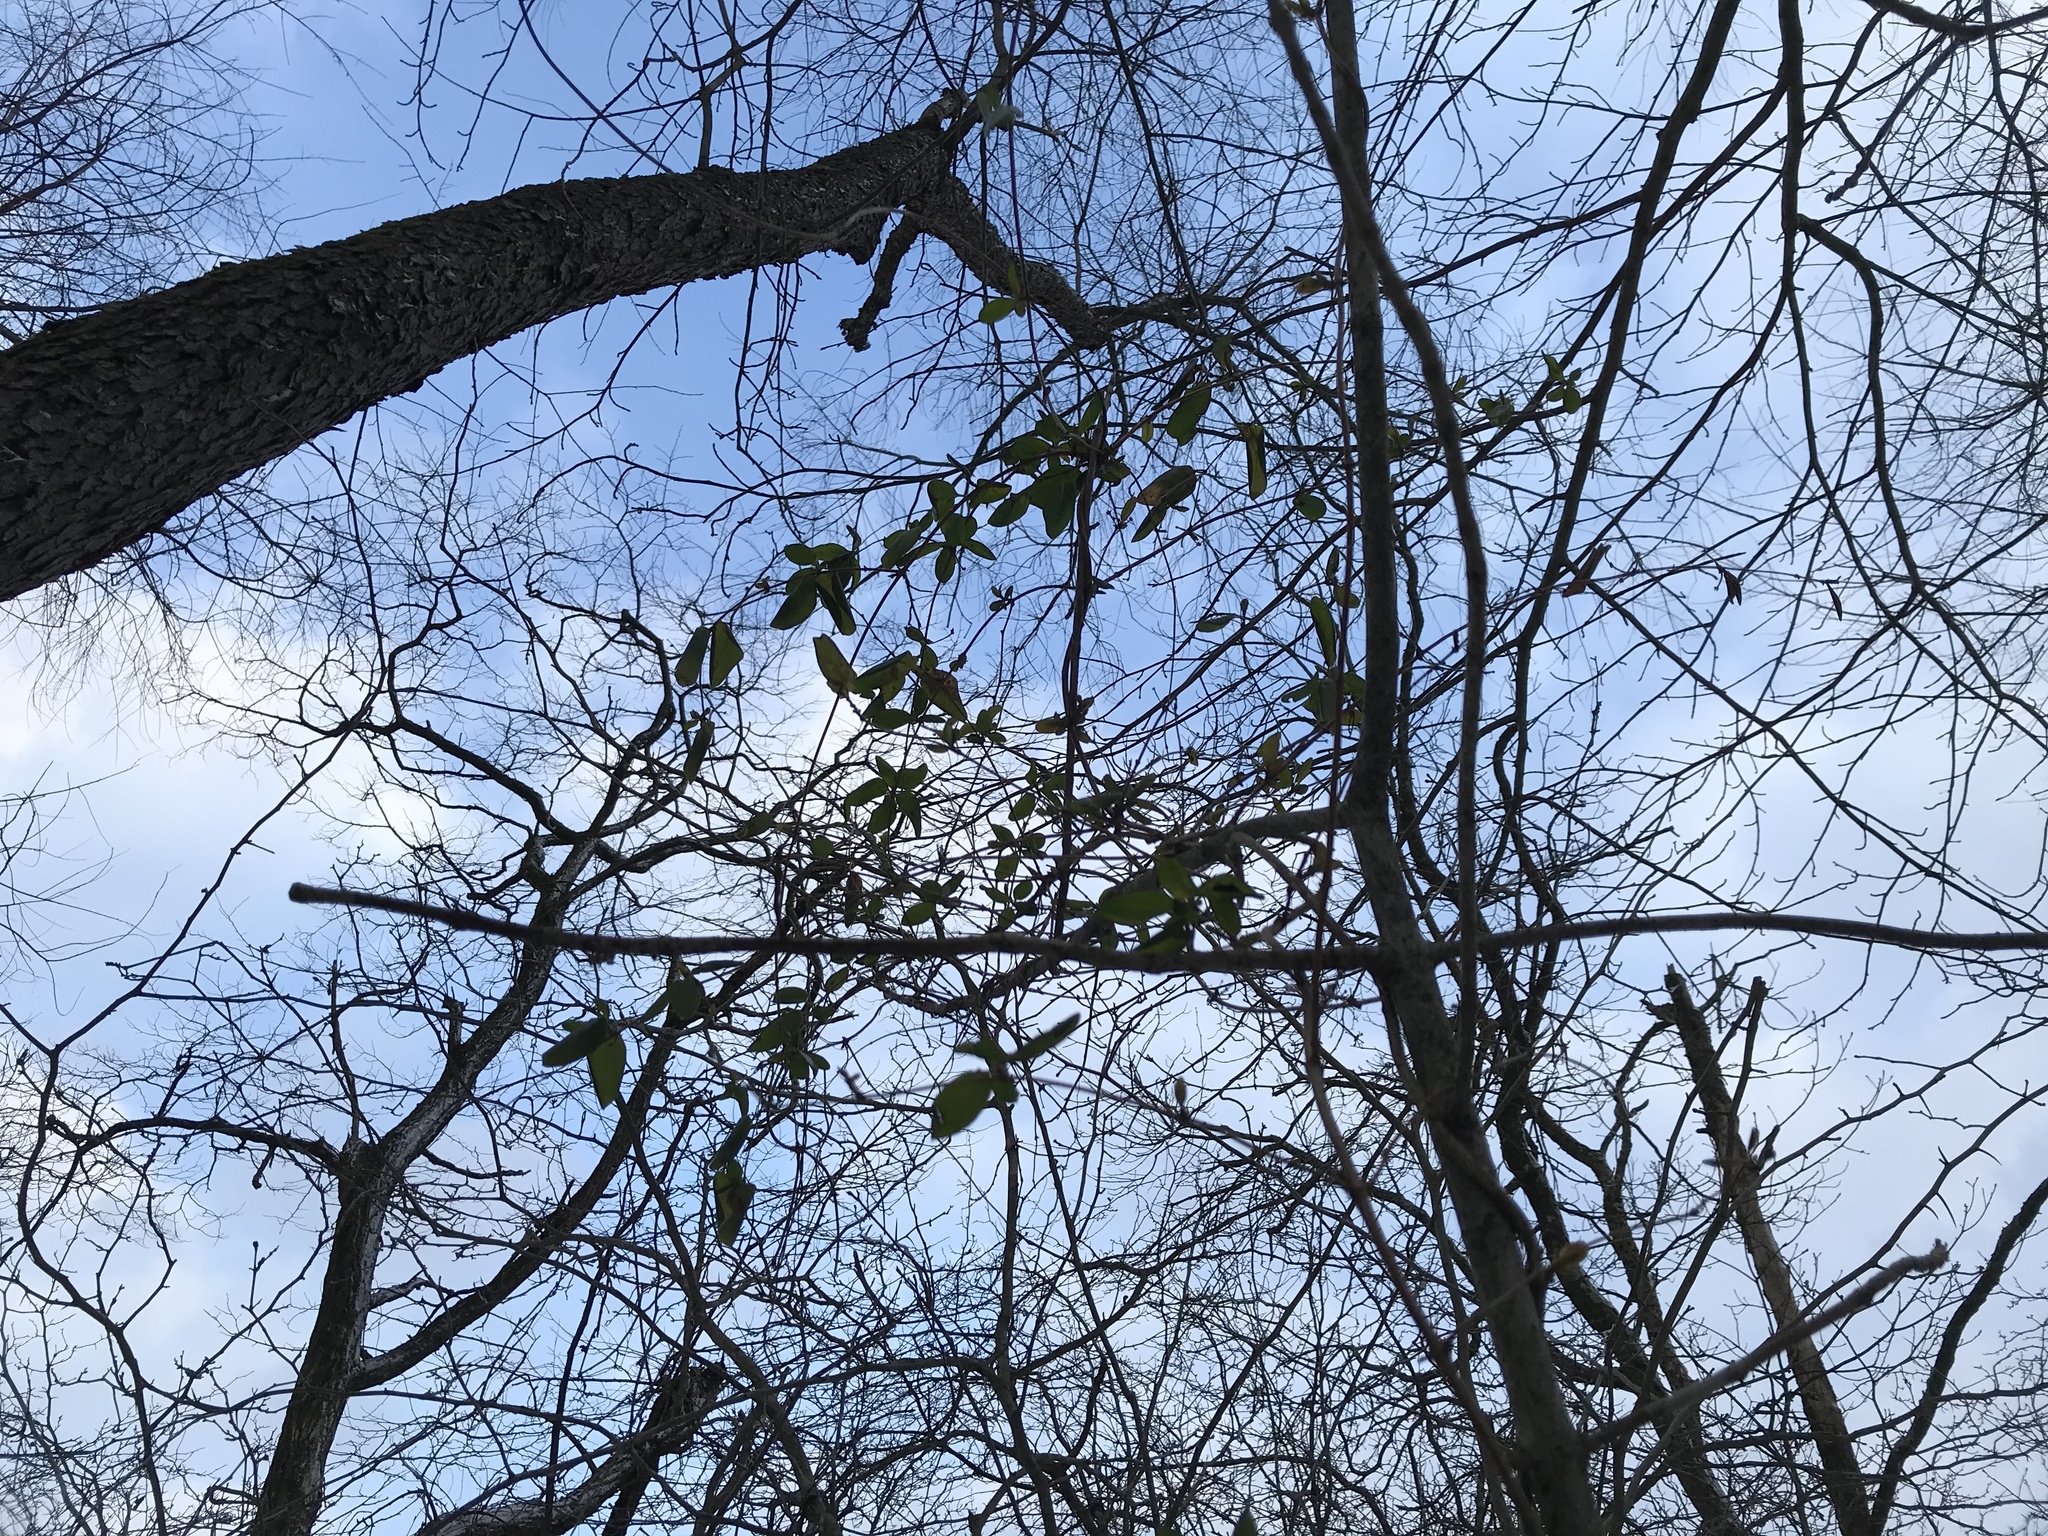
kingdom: Plantae
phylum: Tracheophyta
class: Magnoliopsida
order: Dipsacales
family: Caprifoliaceae
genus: Lonicera
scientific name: Lonicera japonica
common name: Japanese honeysuckle
